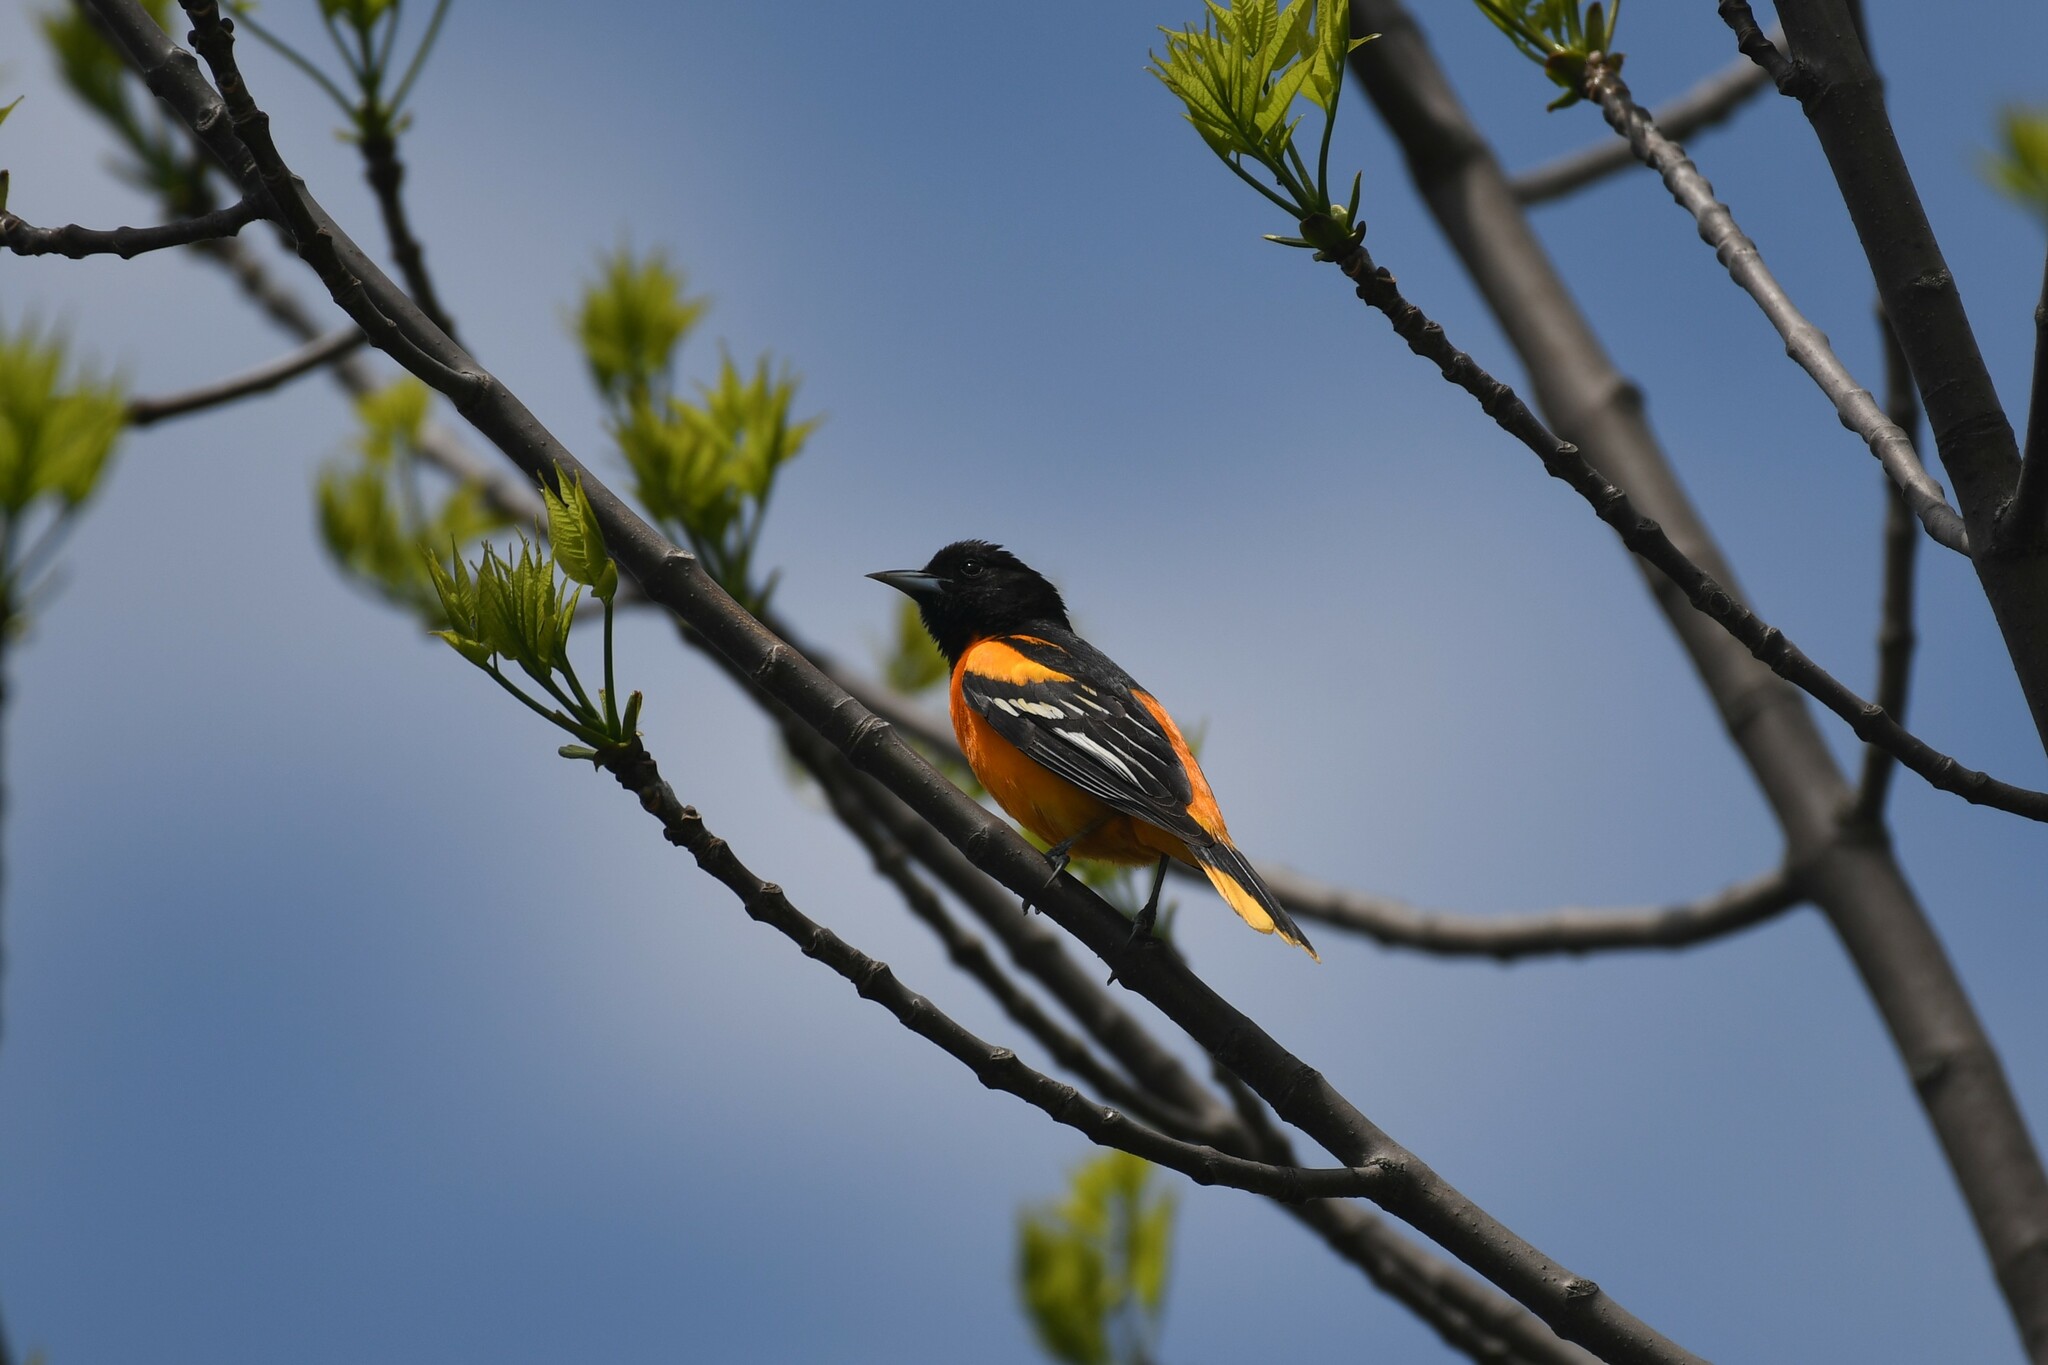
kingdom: Animalia
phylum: Chordata
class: Aves
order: Passeriformes
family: Icteridae
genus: Icterus
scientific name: Icterus galbula
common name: Baltimore oriole
